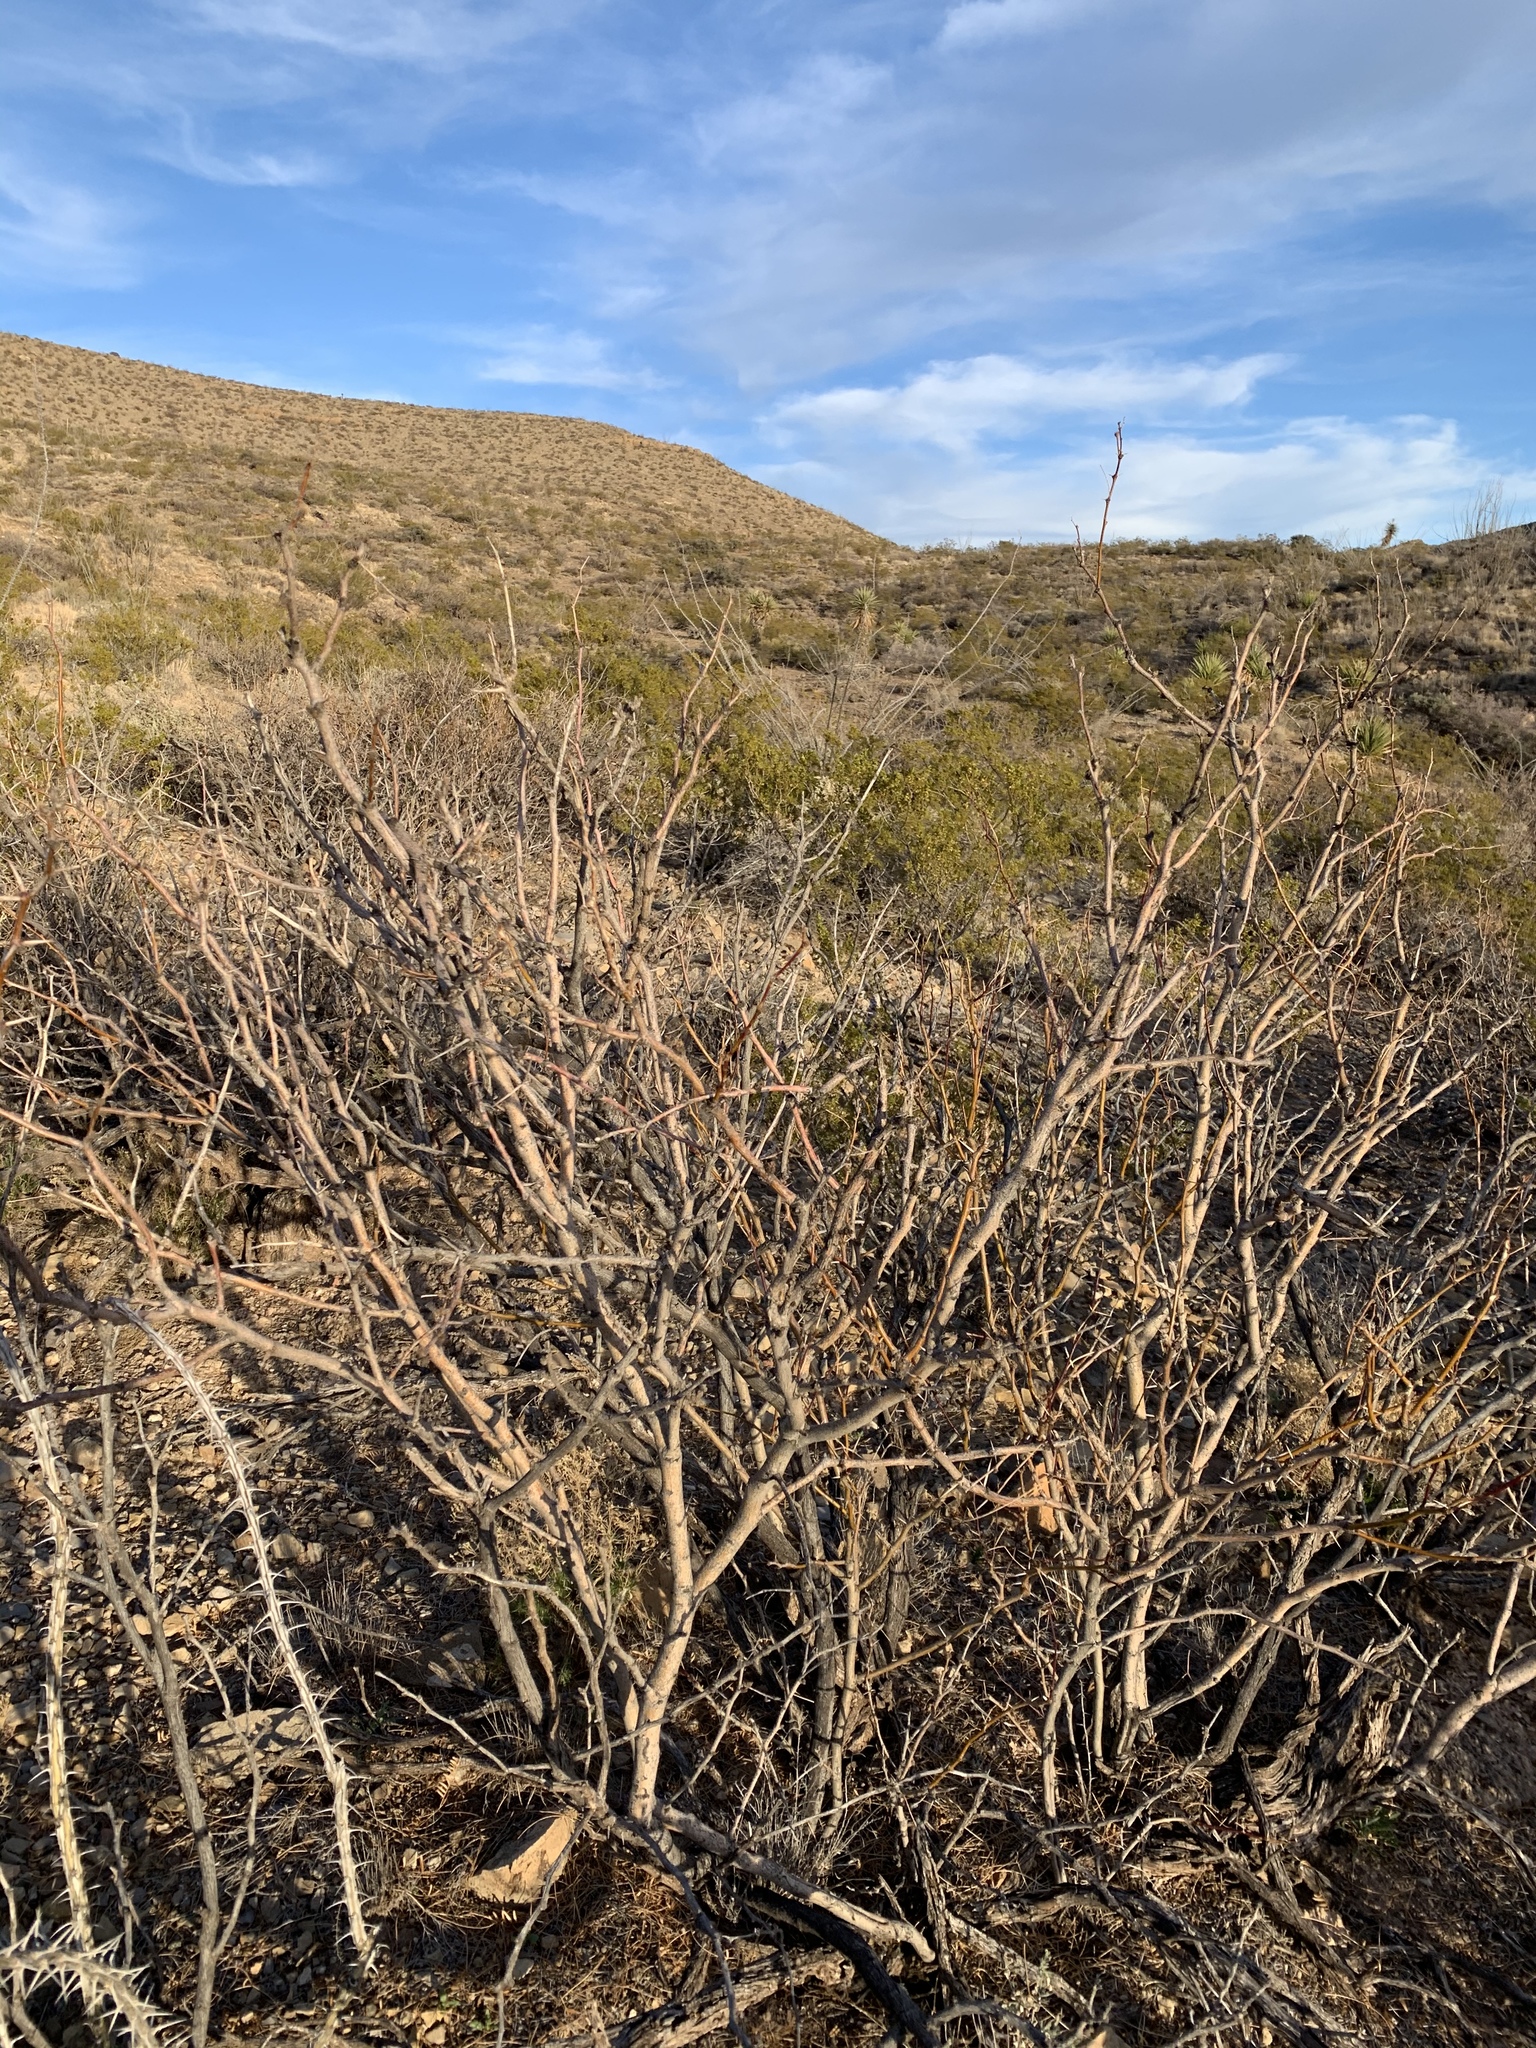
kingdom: Plantae
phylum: Tracheophyta
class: Magnoliopsida
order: Fabales
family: Fabaceae
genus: Prosopis
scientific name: Prosopis glandulosa
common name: Honey mesquite
